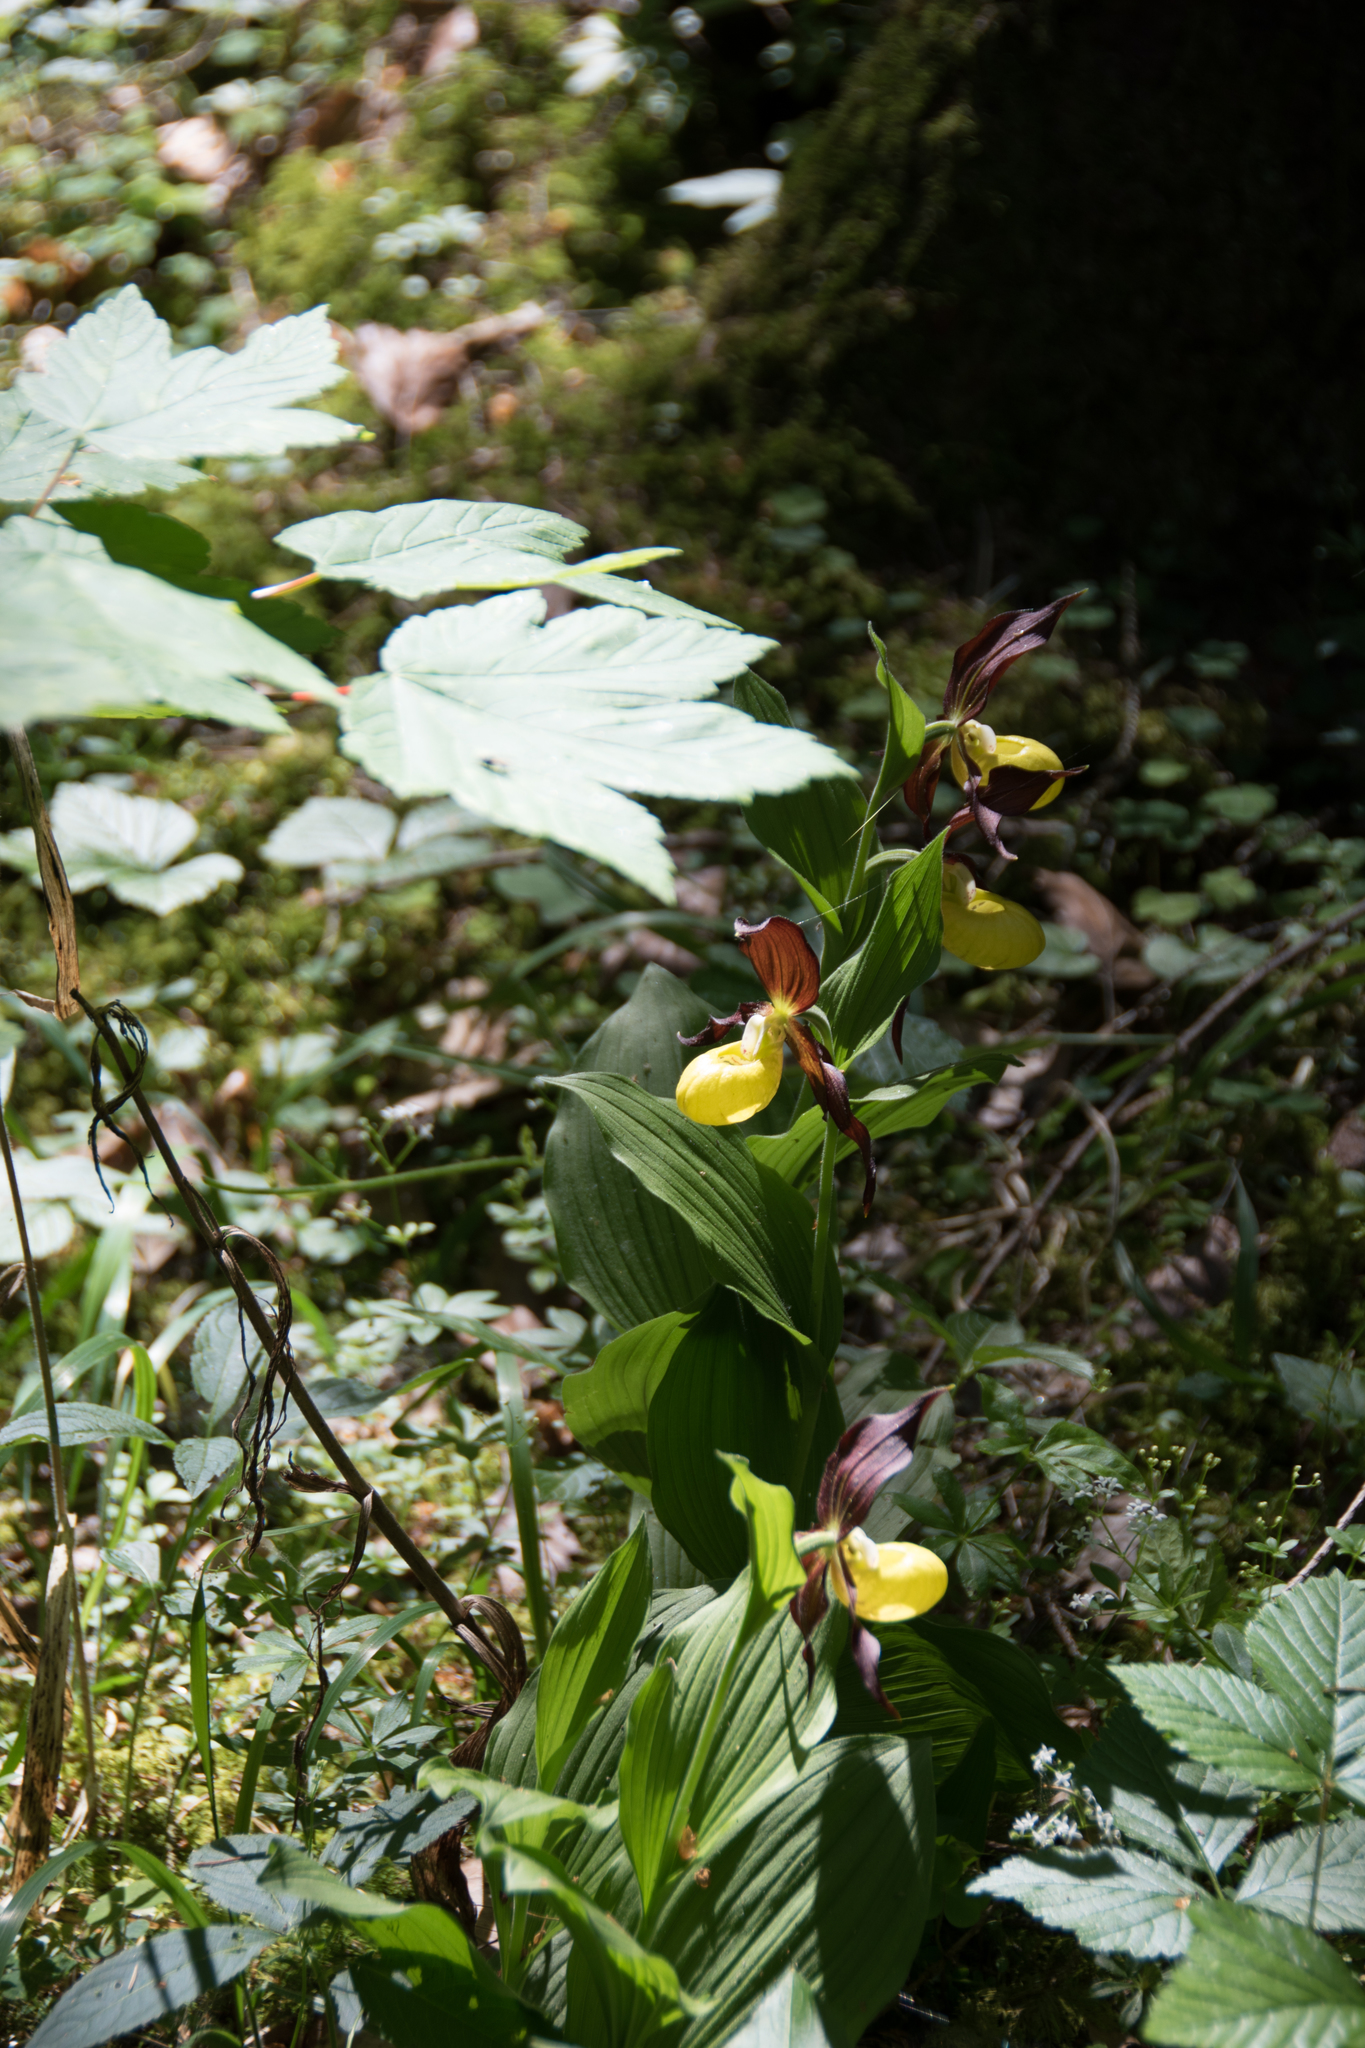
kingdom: Plantae
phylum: Tracheophyta
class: Liliopsida
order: Asparagales
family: Orchidaceae
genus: Cypripedium
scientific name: Cypripedium calceolus
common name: Lady's-slipper
